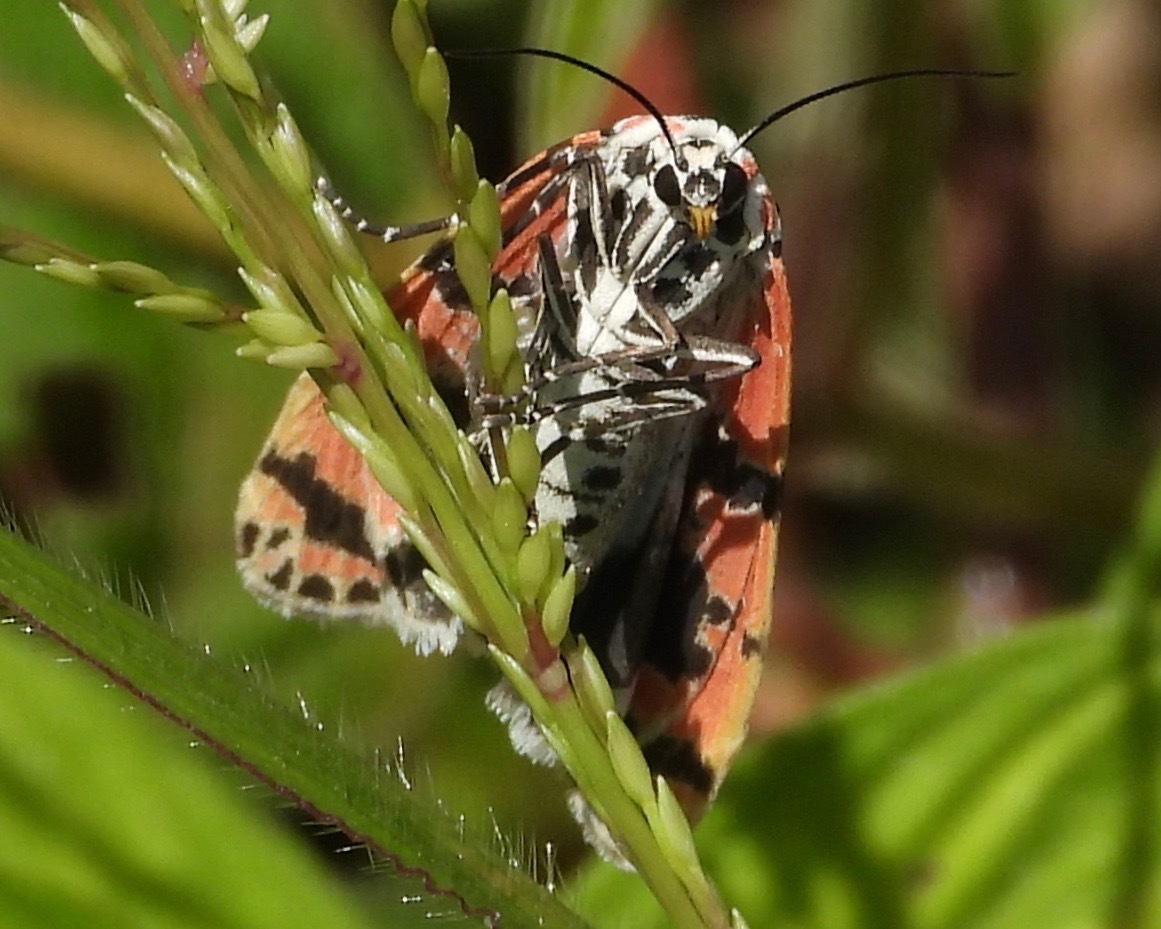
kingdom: Animalia
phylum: Arthropoda
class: Insecta
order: Lepidoptera
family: Erebidae
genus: Utetheisa
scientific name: Utetheisa ornatrix
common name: Beautiful utetheisa
